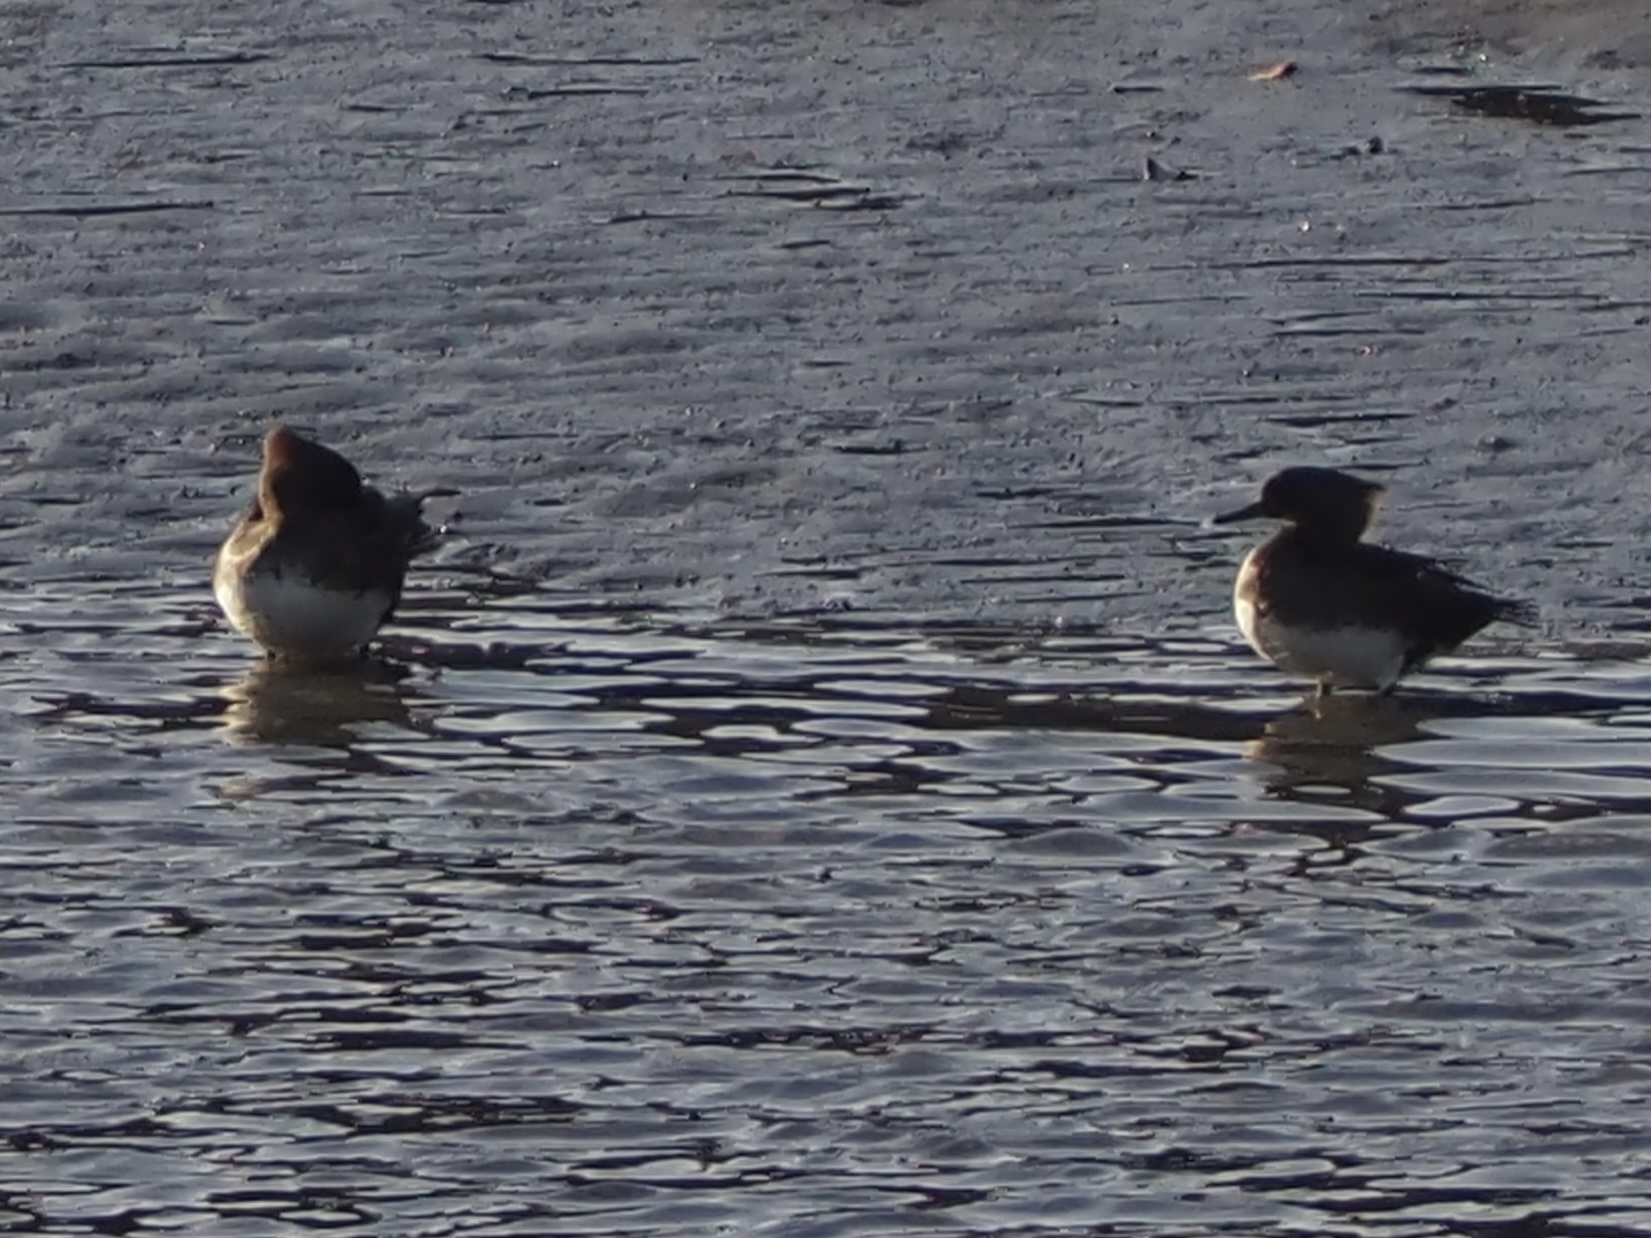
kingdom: Animalia
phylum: Chordata
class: Aves
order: Anseriformes
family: Anatidae
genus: Lophodytes
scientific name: Lophodytes cucullatus
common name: Hooded merganser
